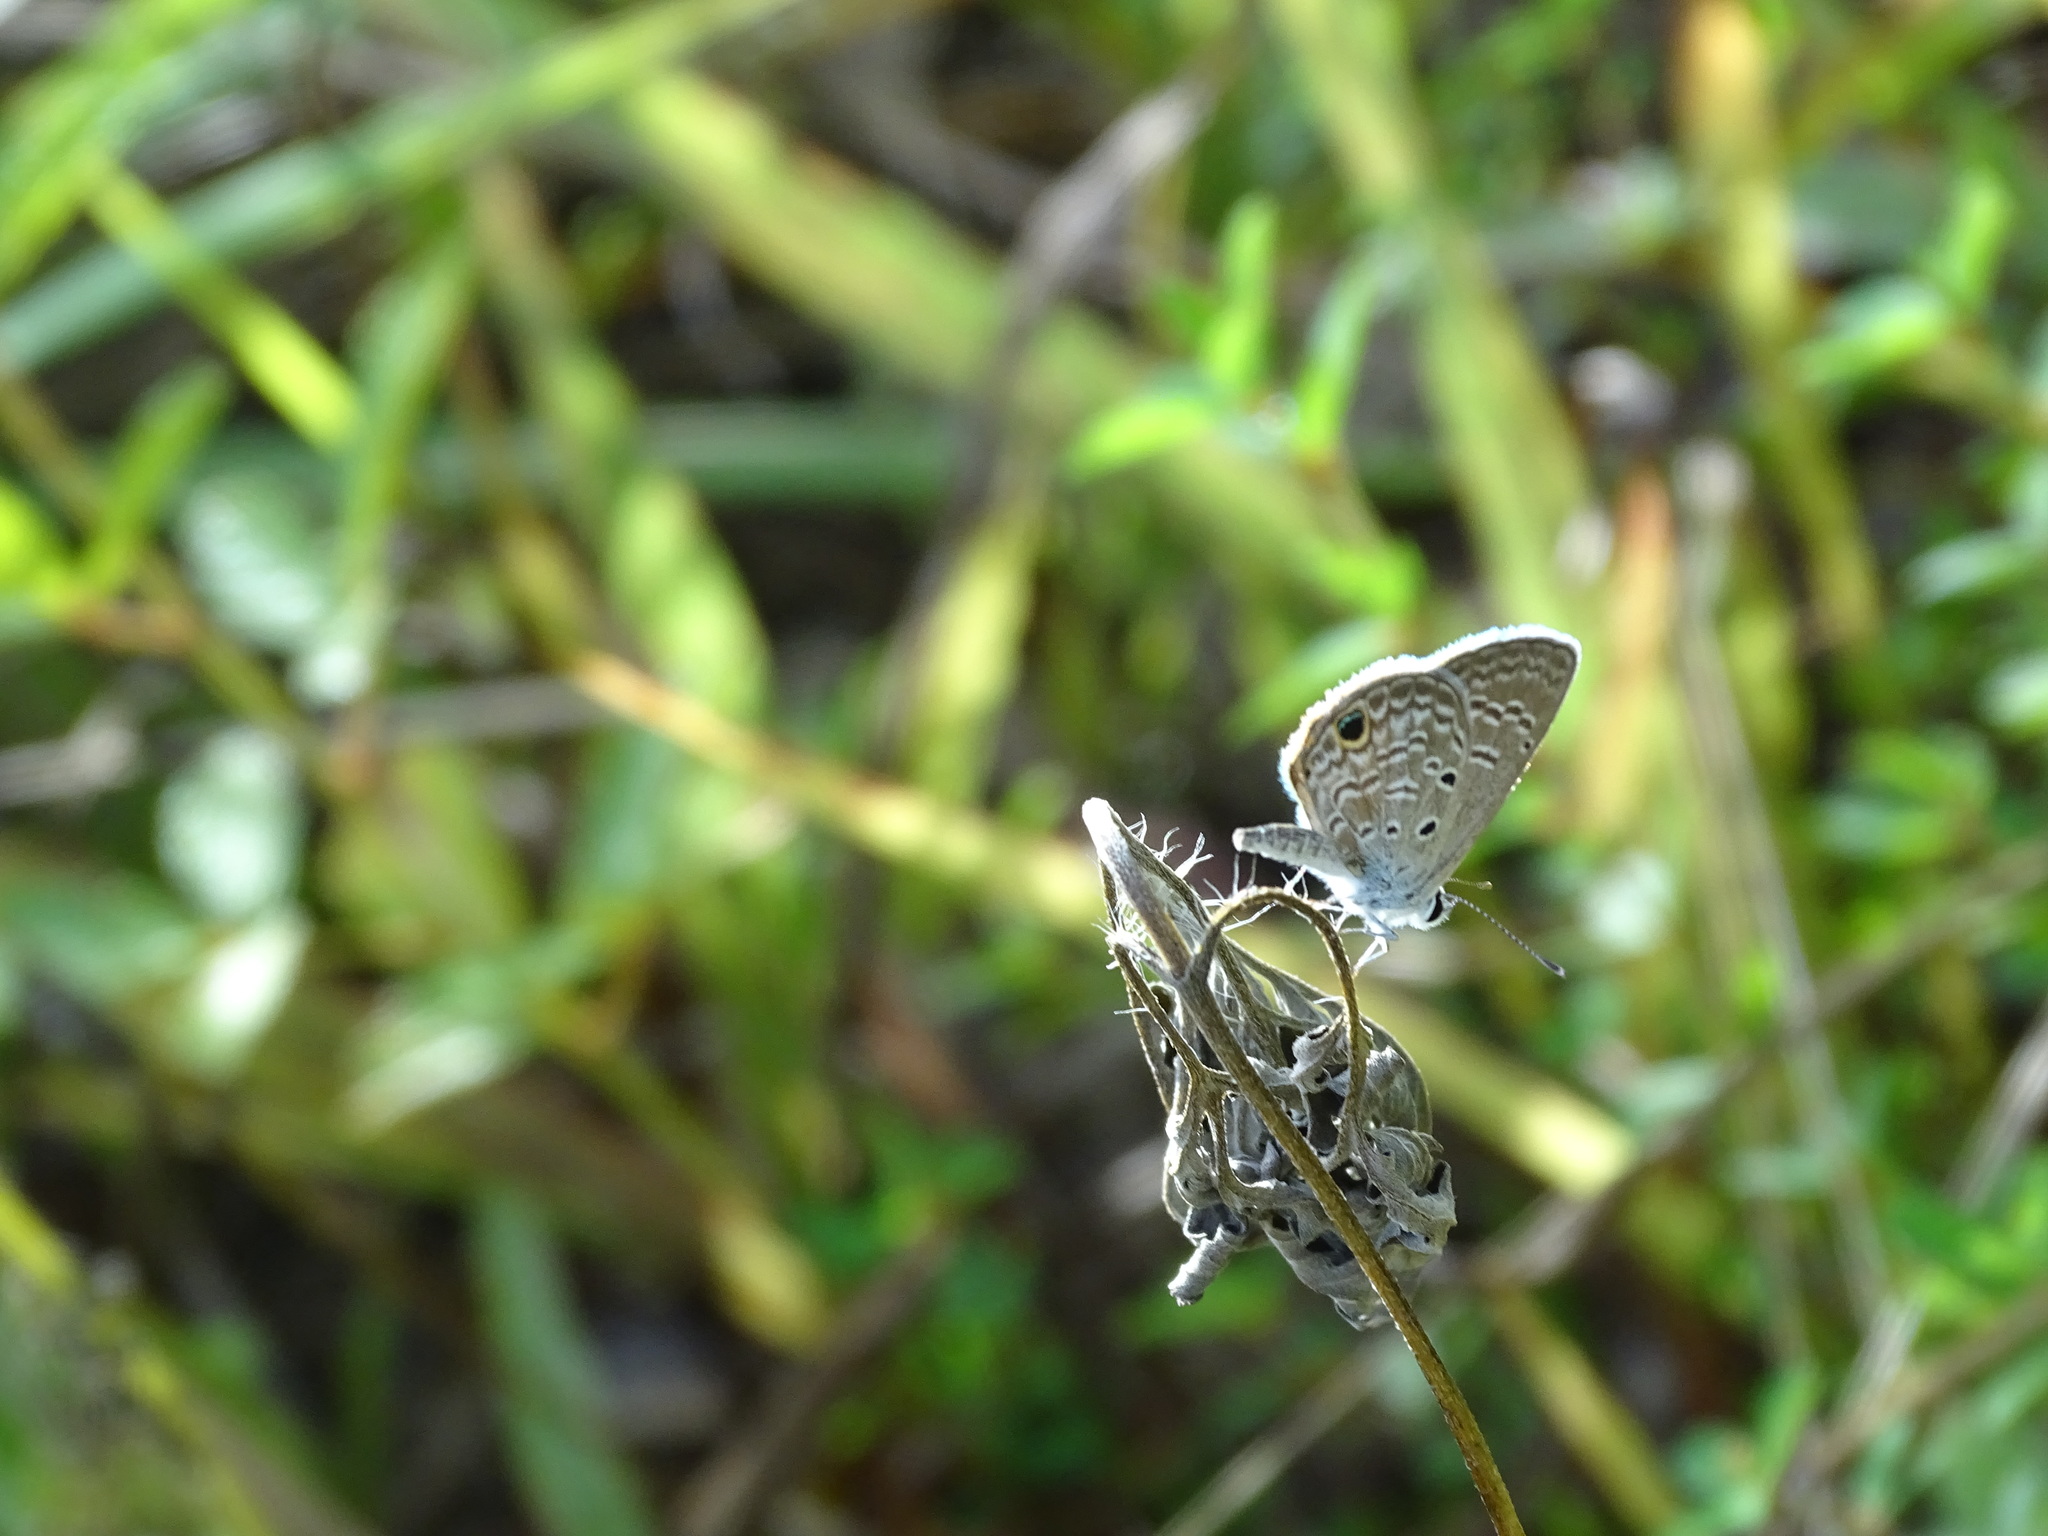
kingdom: Animalia
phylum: Arthropoda
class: Insecta
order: Lepidoptera
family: Lycaenidae
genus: Hemiargus
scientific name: Hemiargus ceraunus
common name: Ceraunus blue
